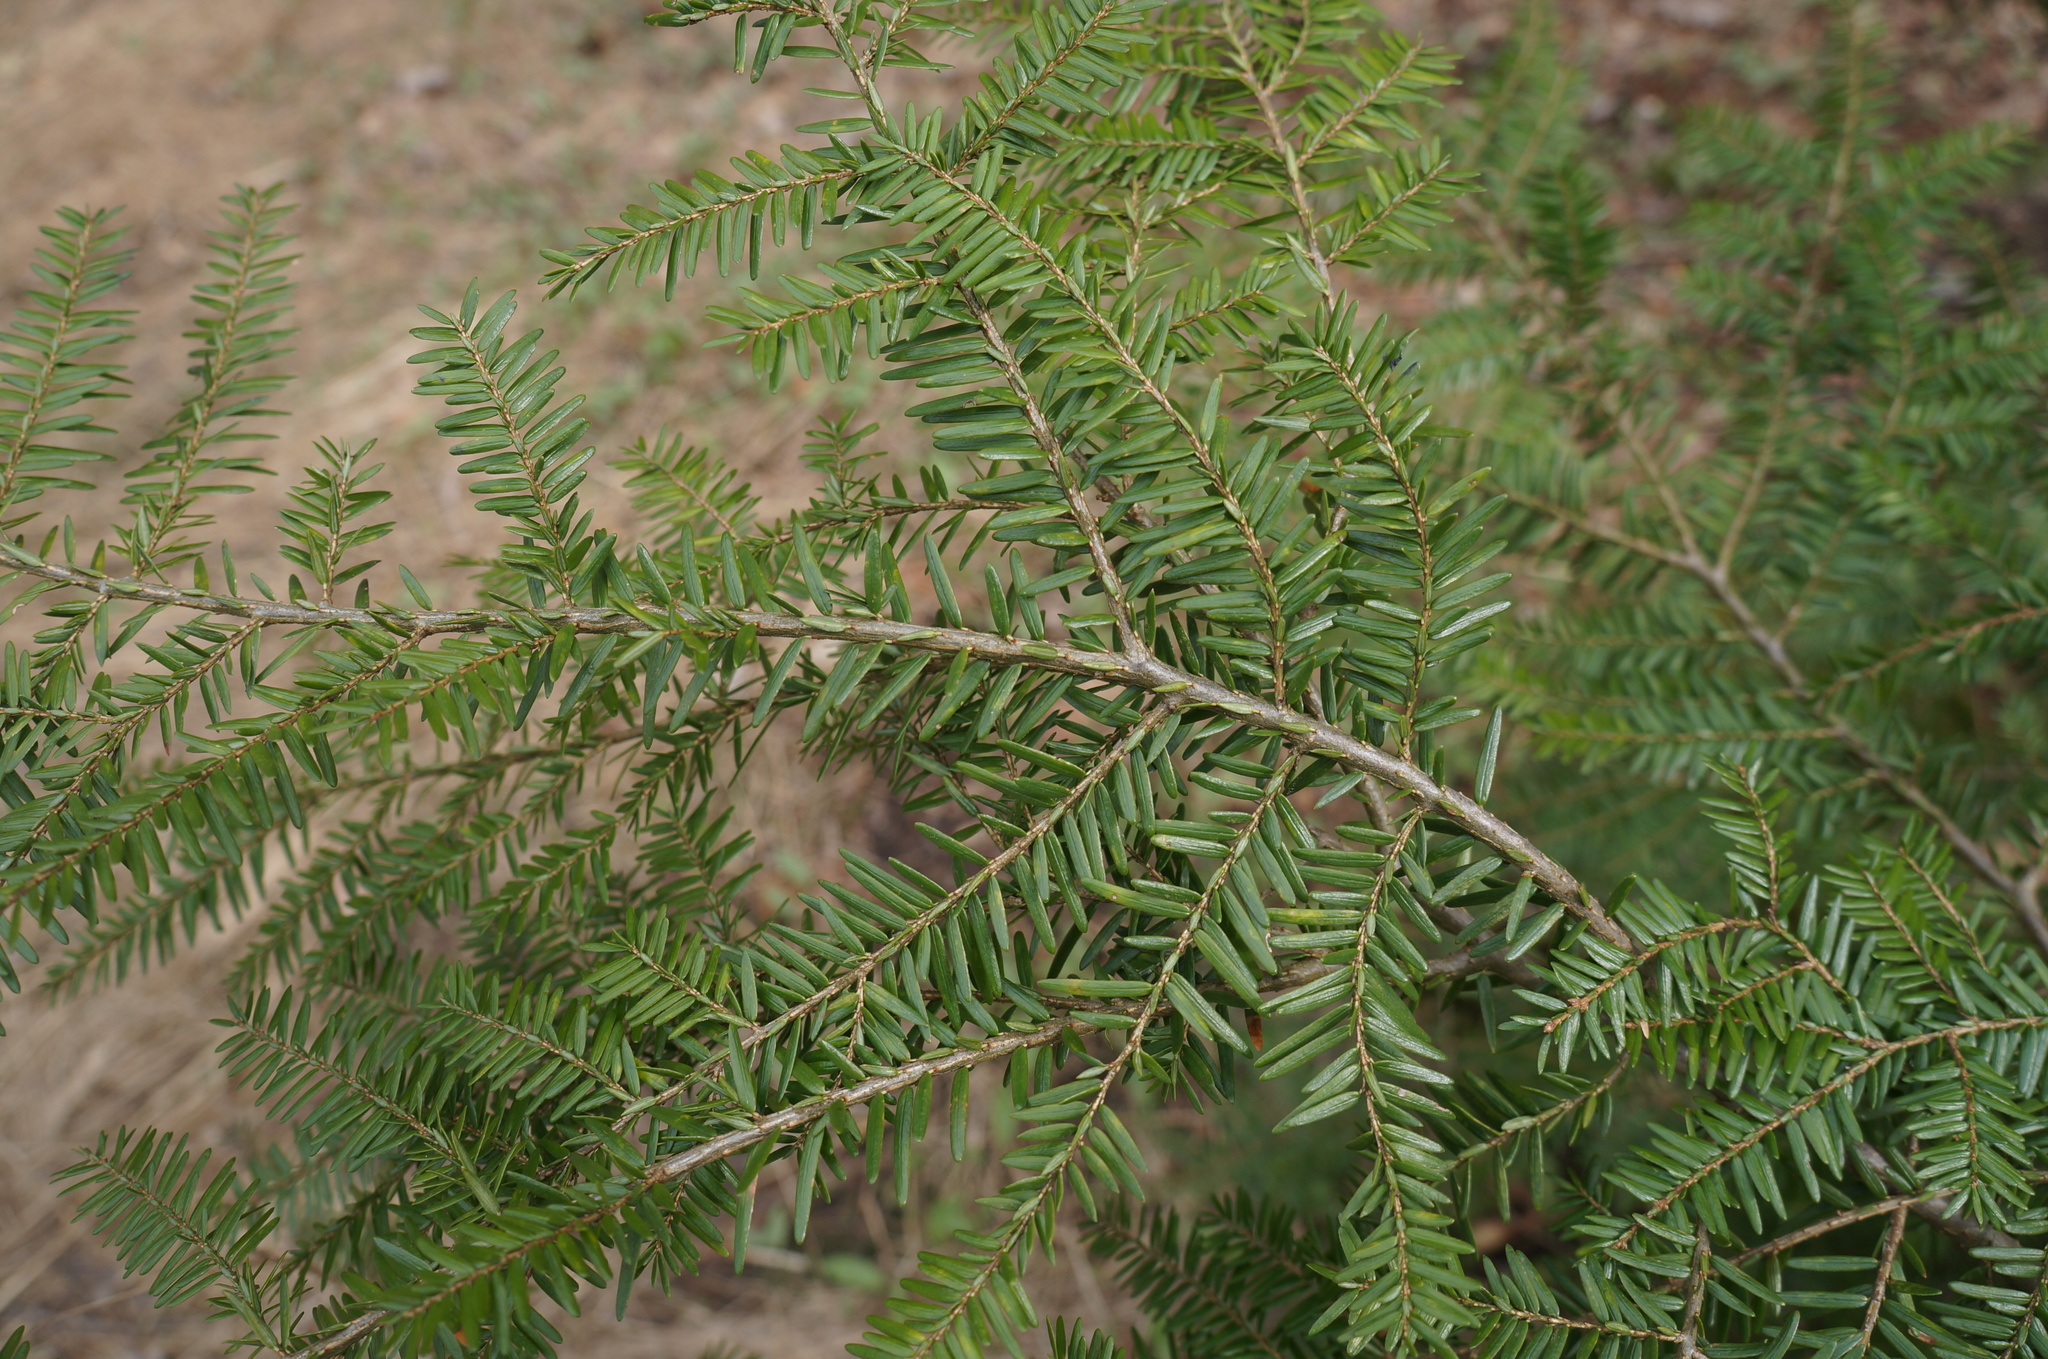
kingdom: Plantae
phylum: Tracheophyta
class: Pinopsida
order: Pinales
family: Pinaceae
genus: Tsuga
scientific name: Tsuga canadensis
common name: Eastern hemlock
